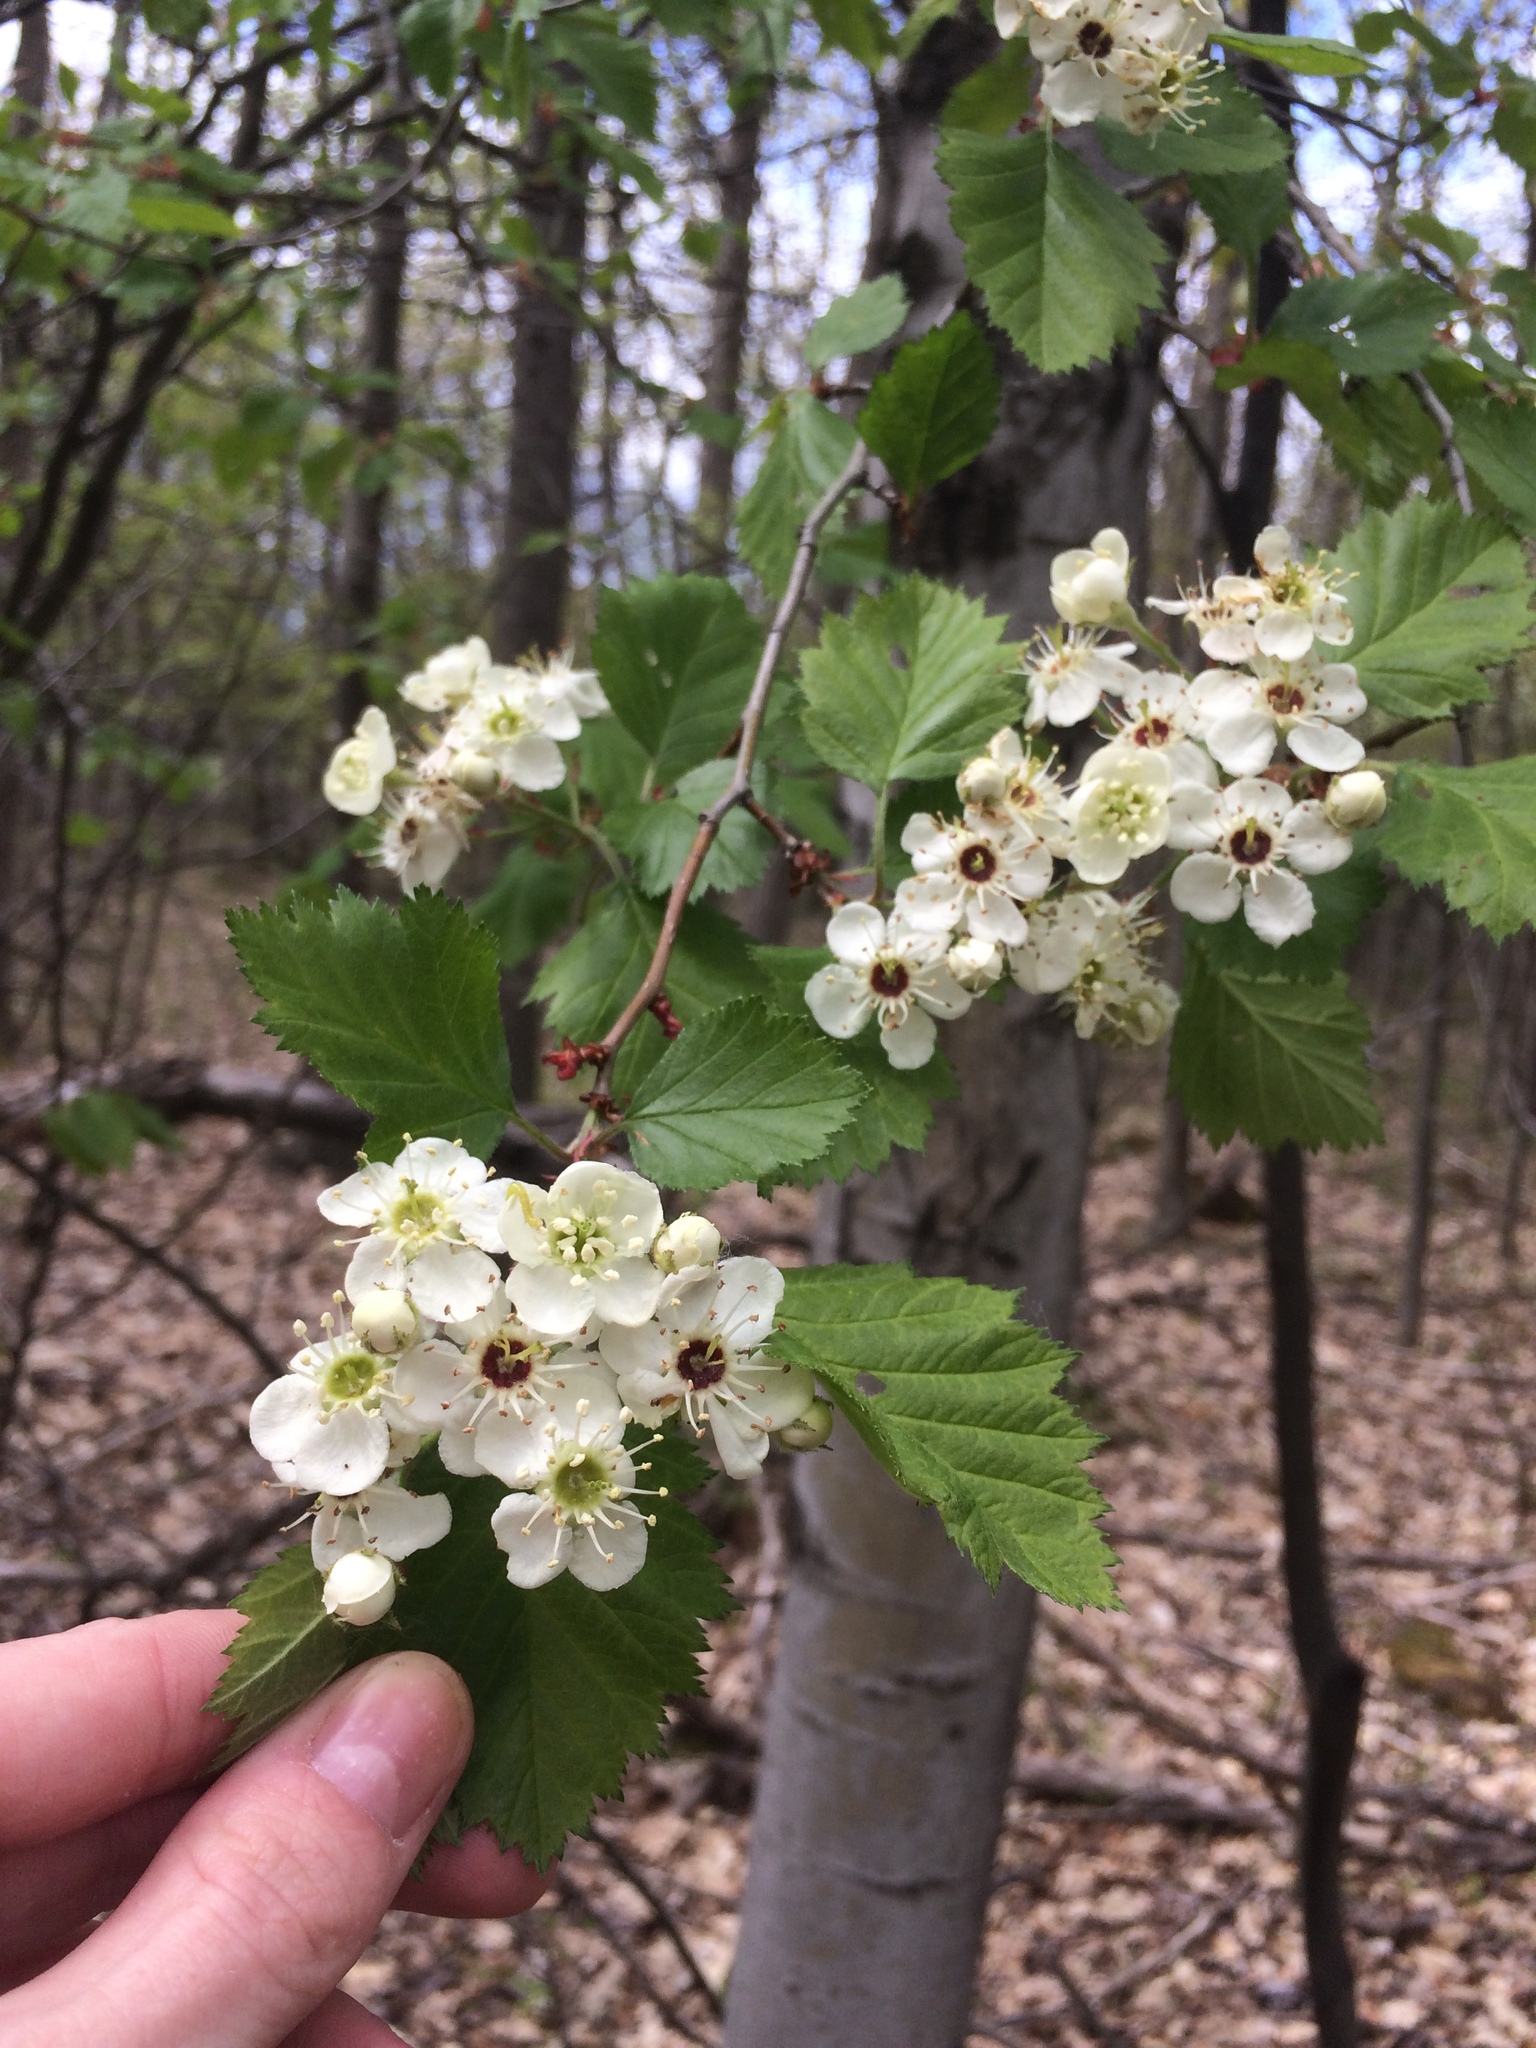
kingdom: Plantae
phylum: Tracheophyta
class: Magnoliopsida
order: Rosales
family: Rosaceae
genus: Crataegus
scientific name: Crataegus submollis
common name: Hairy cockspurthorn
